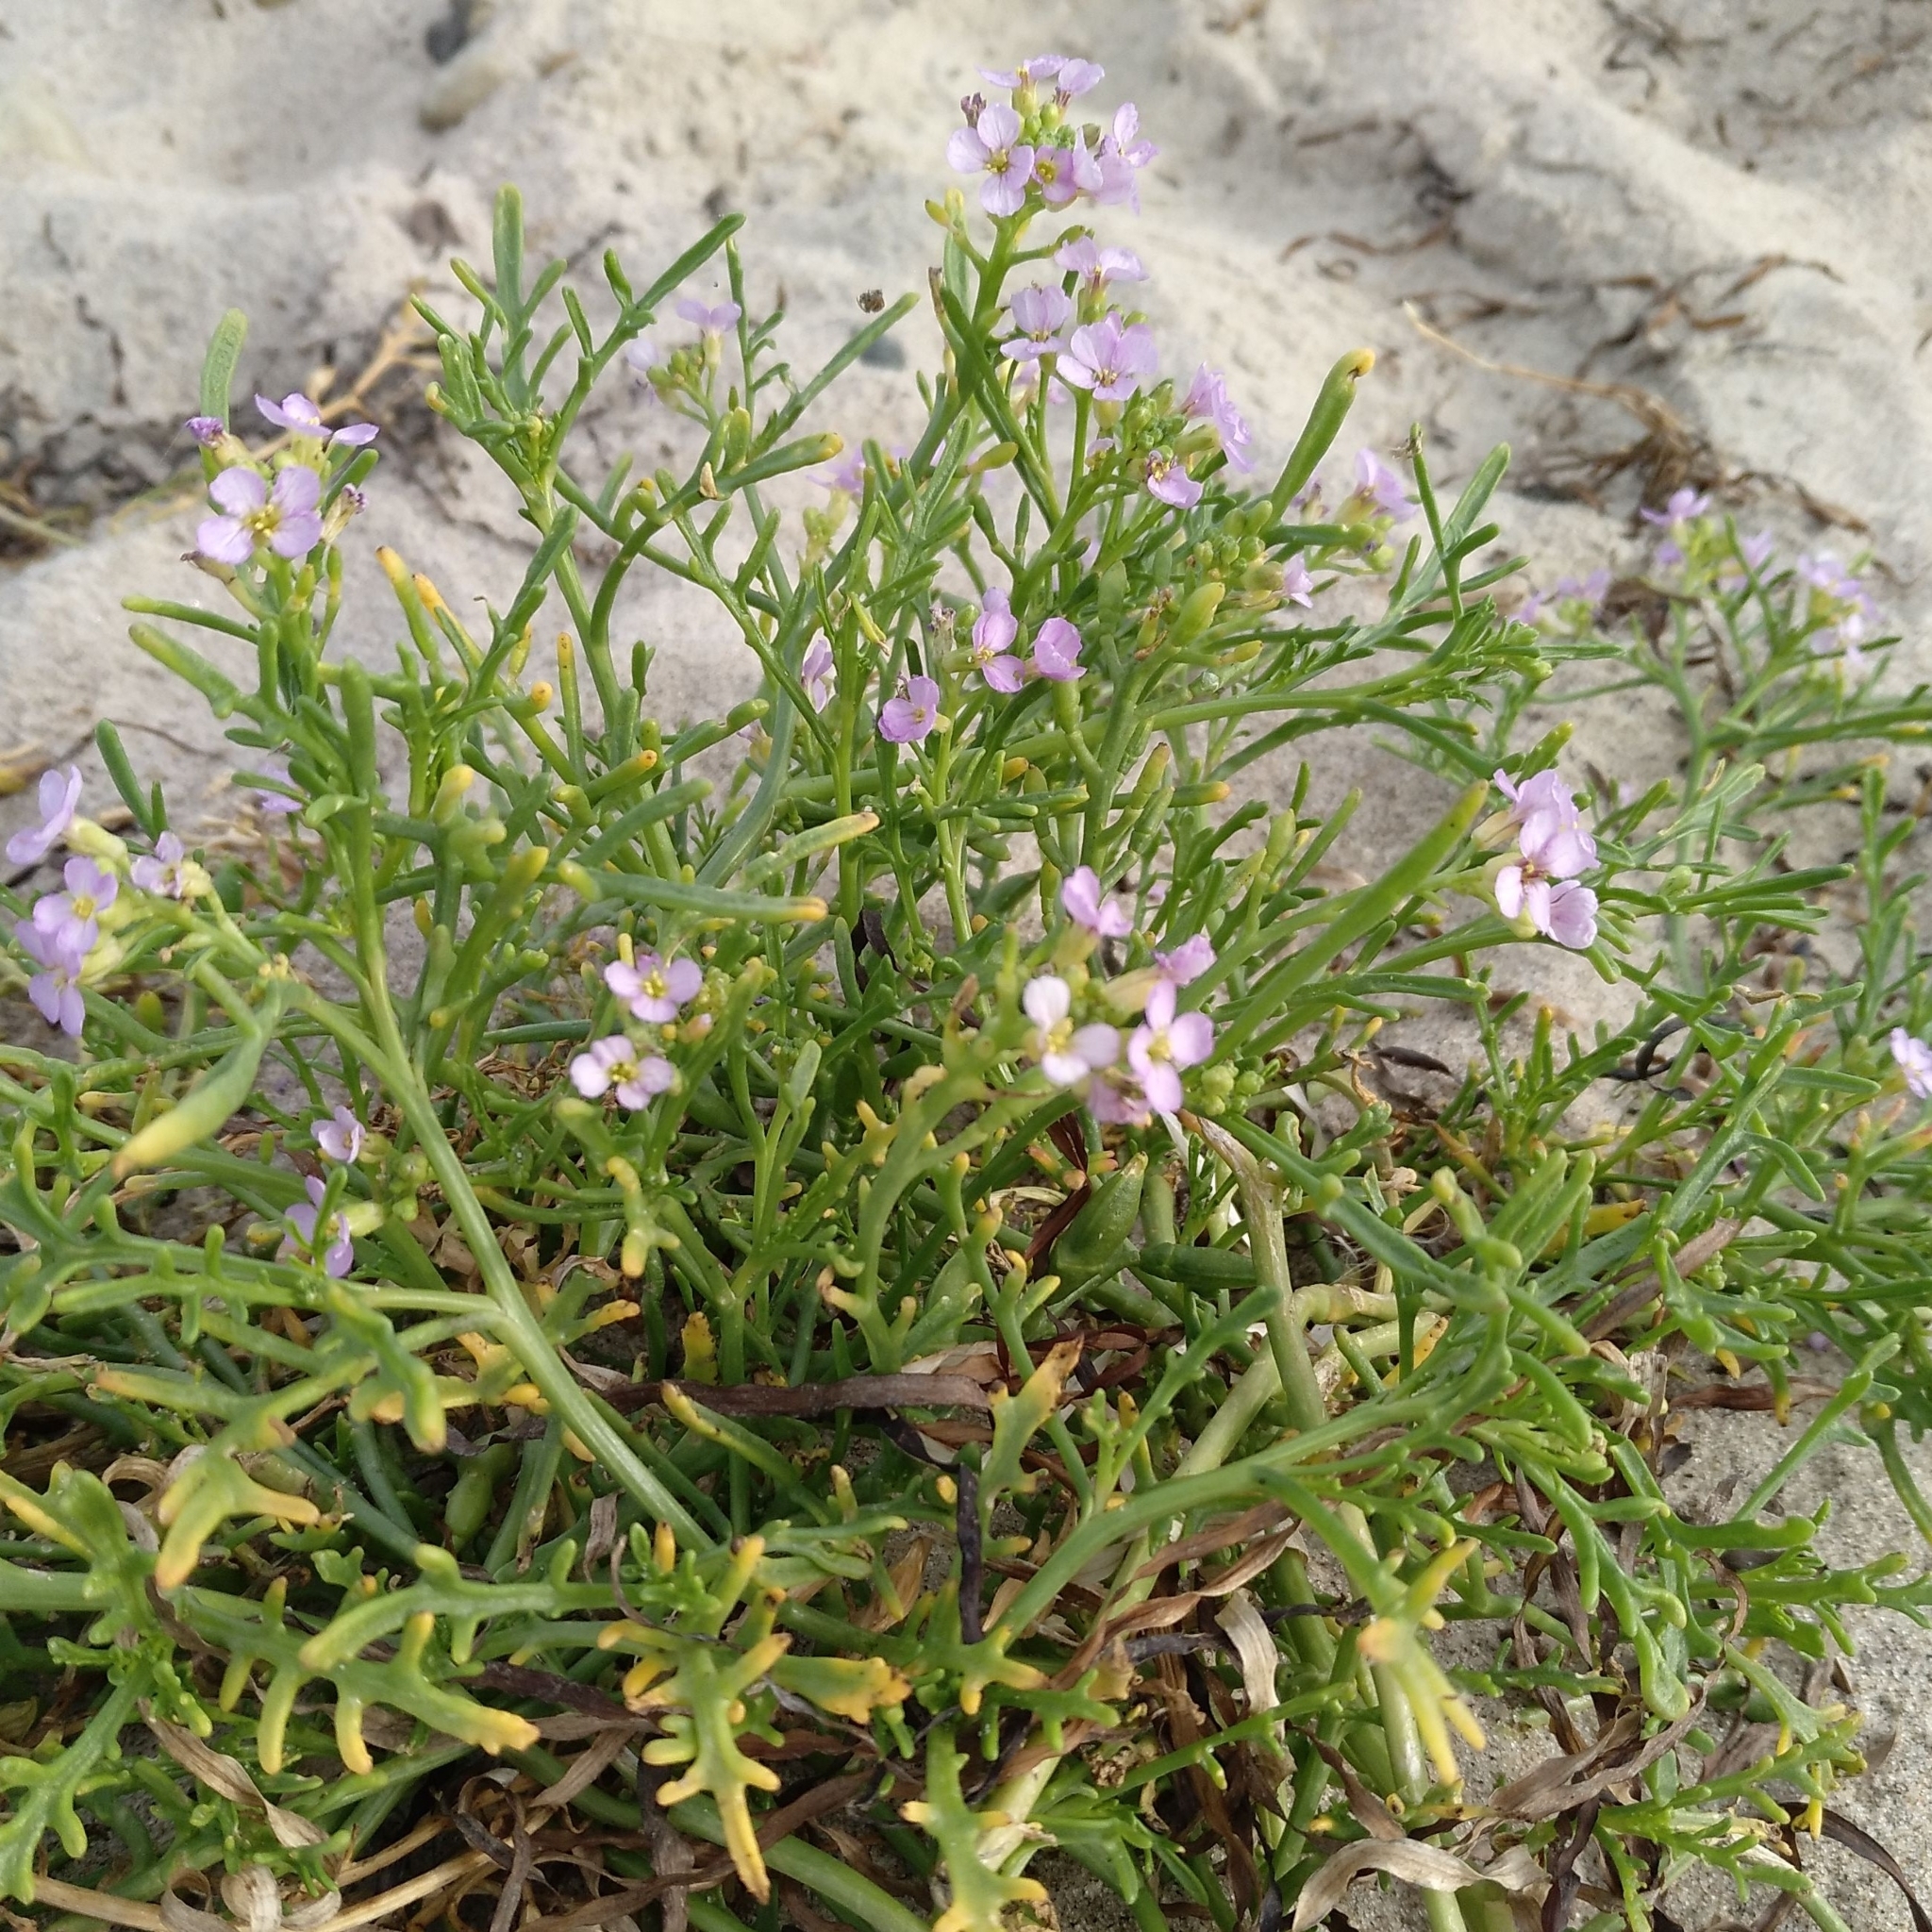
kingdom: Plantae
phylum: Tracheophyta
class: Magnoliopsida
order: Brassicales
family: Brassicaceae
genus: Cakile
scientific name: Cakile maritima
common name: Sea rocket
